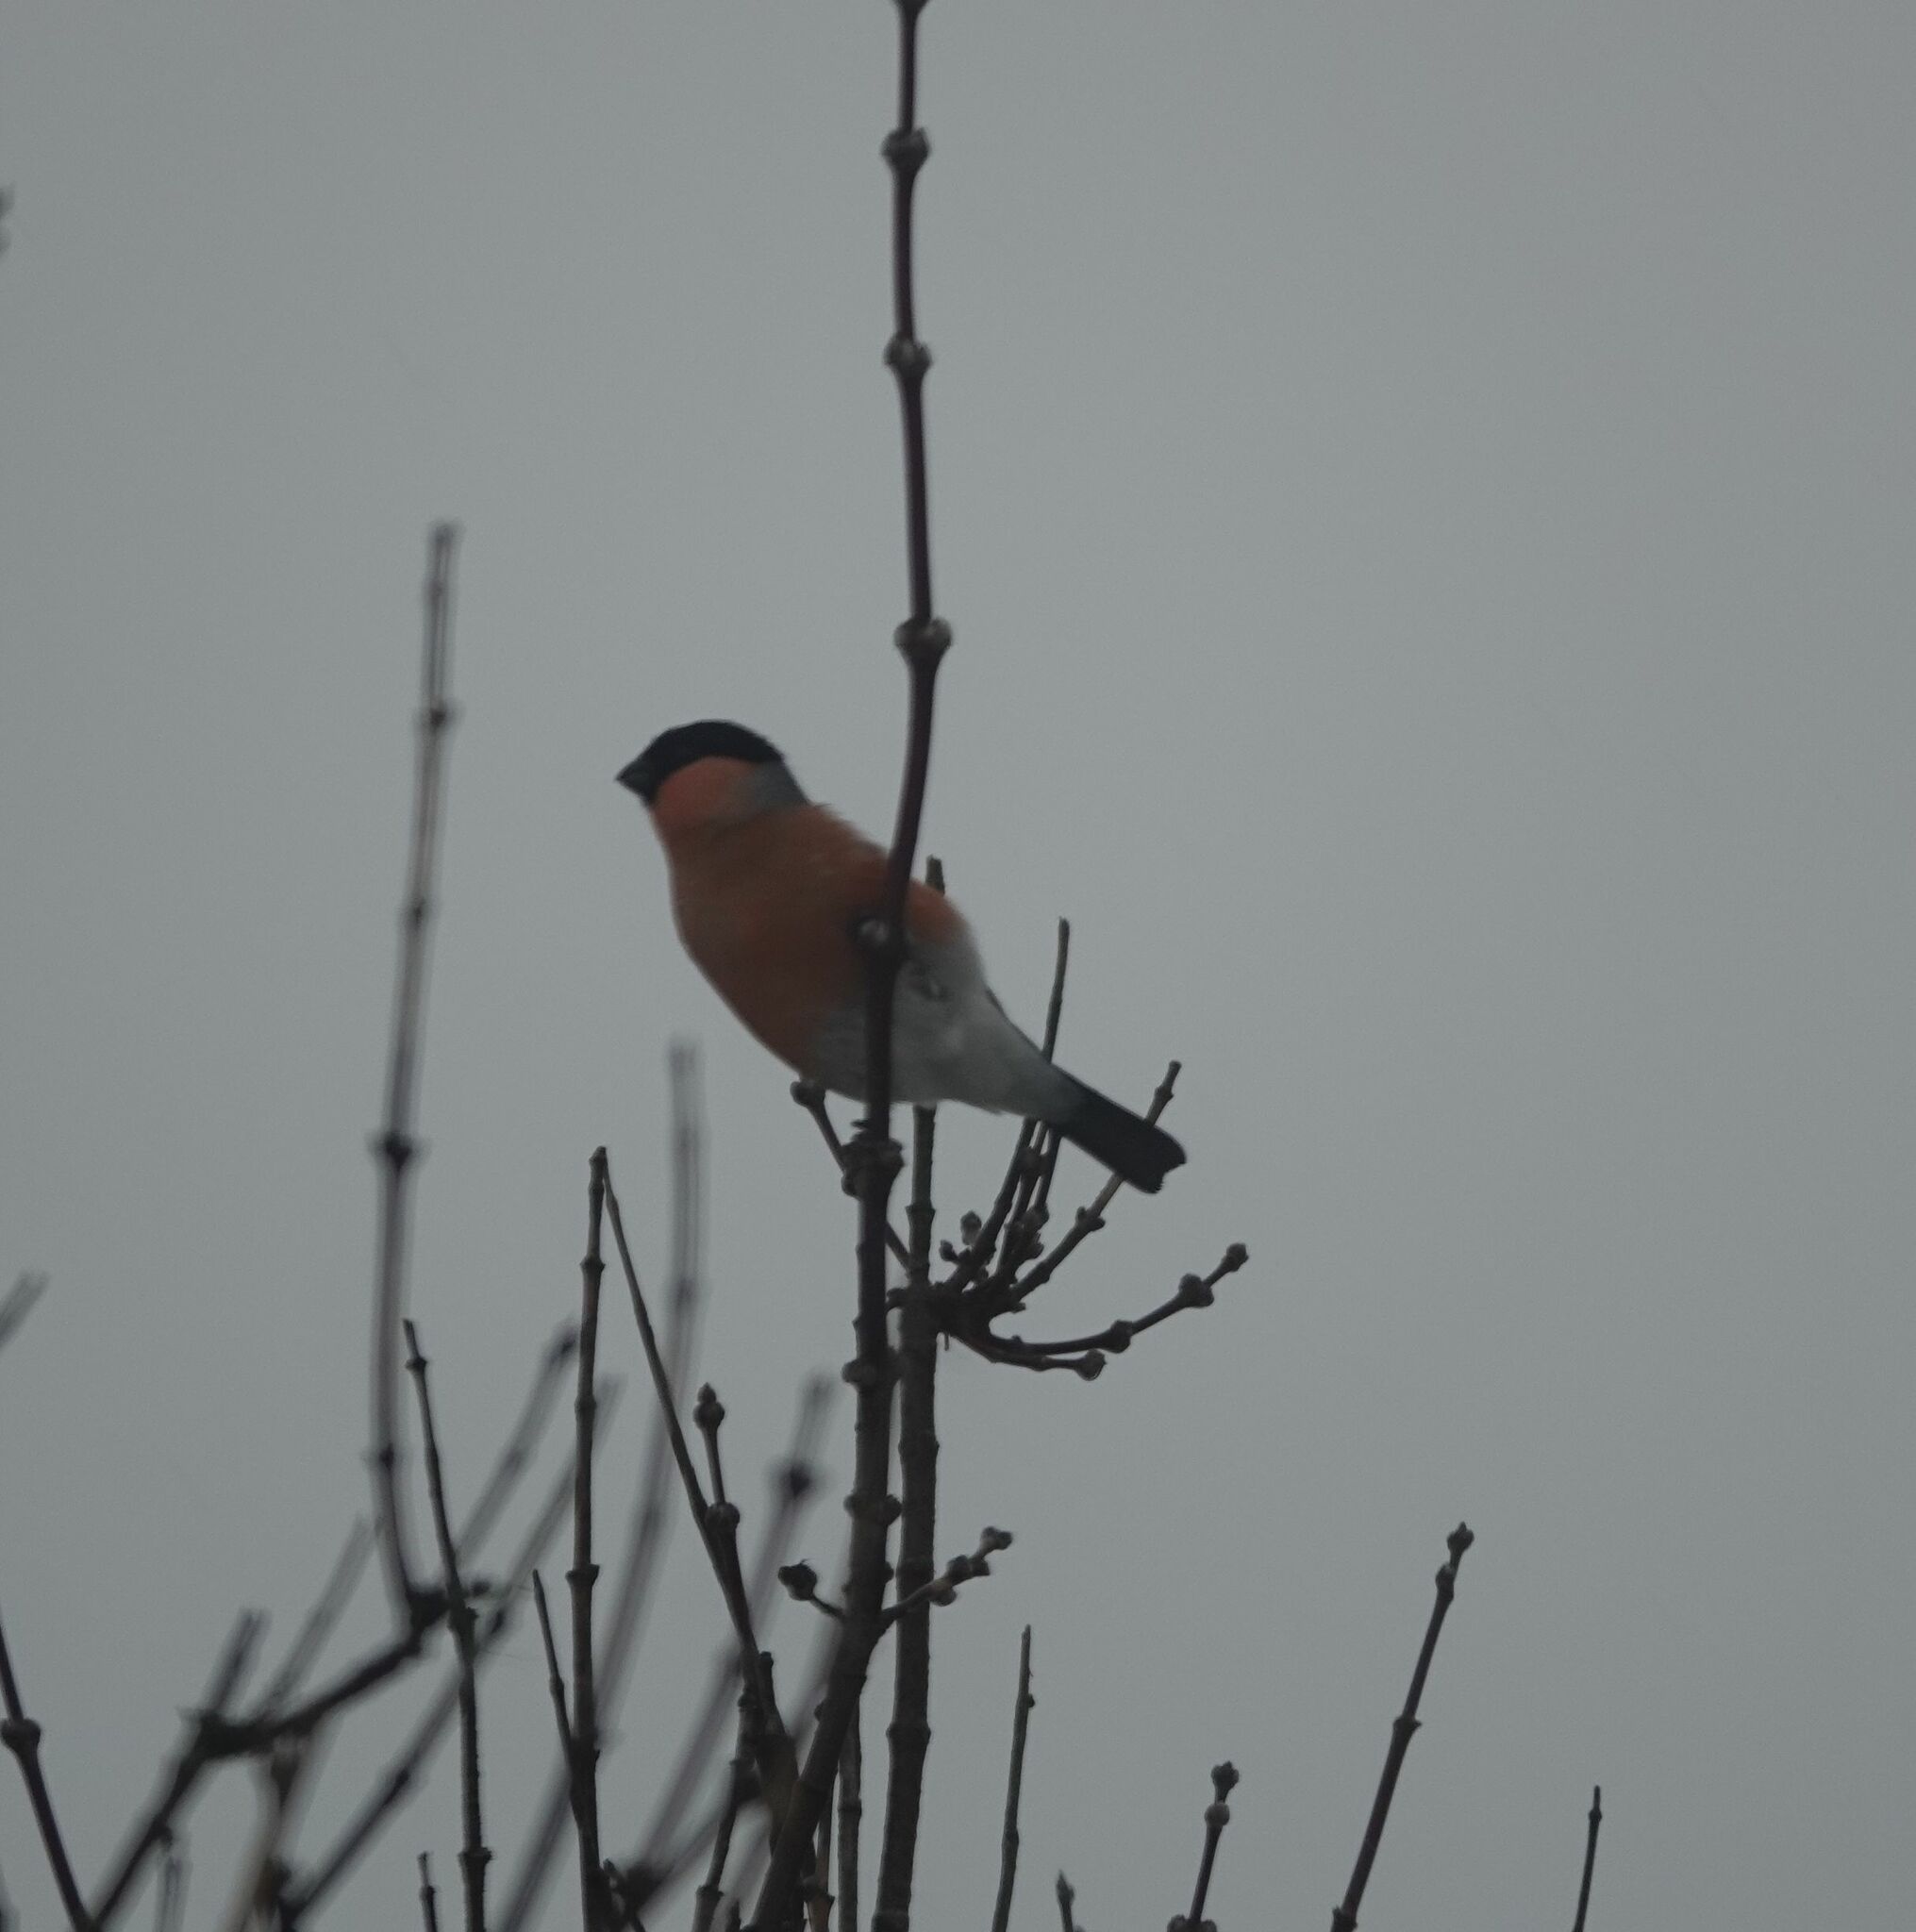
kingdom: Animalia
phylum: Chordata
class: Aves
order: Passeriformes
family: Fringillidae
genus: Pyrrhula
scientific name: Pyrrhula pyrrhula
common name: Eurasian bullfinch
